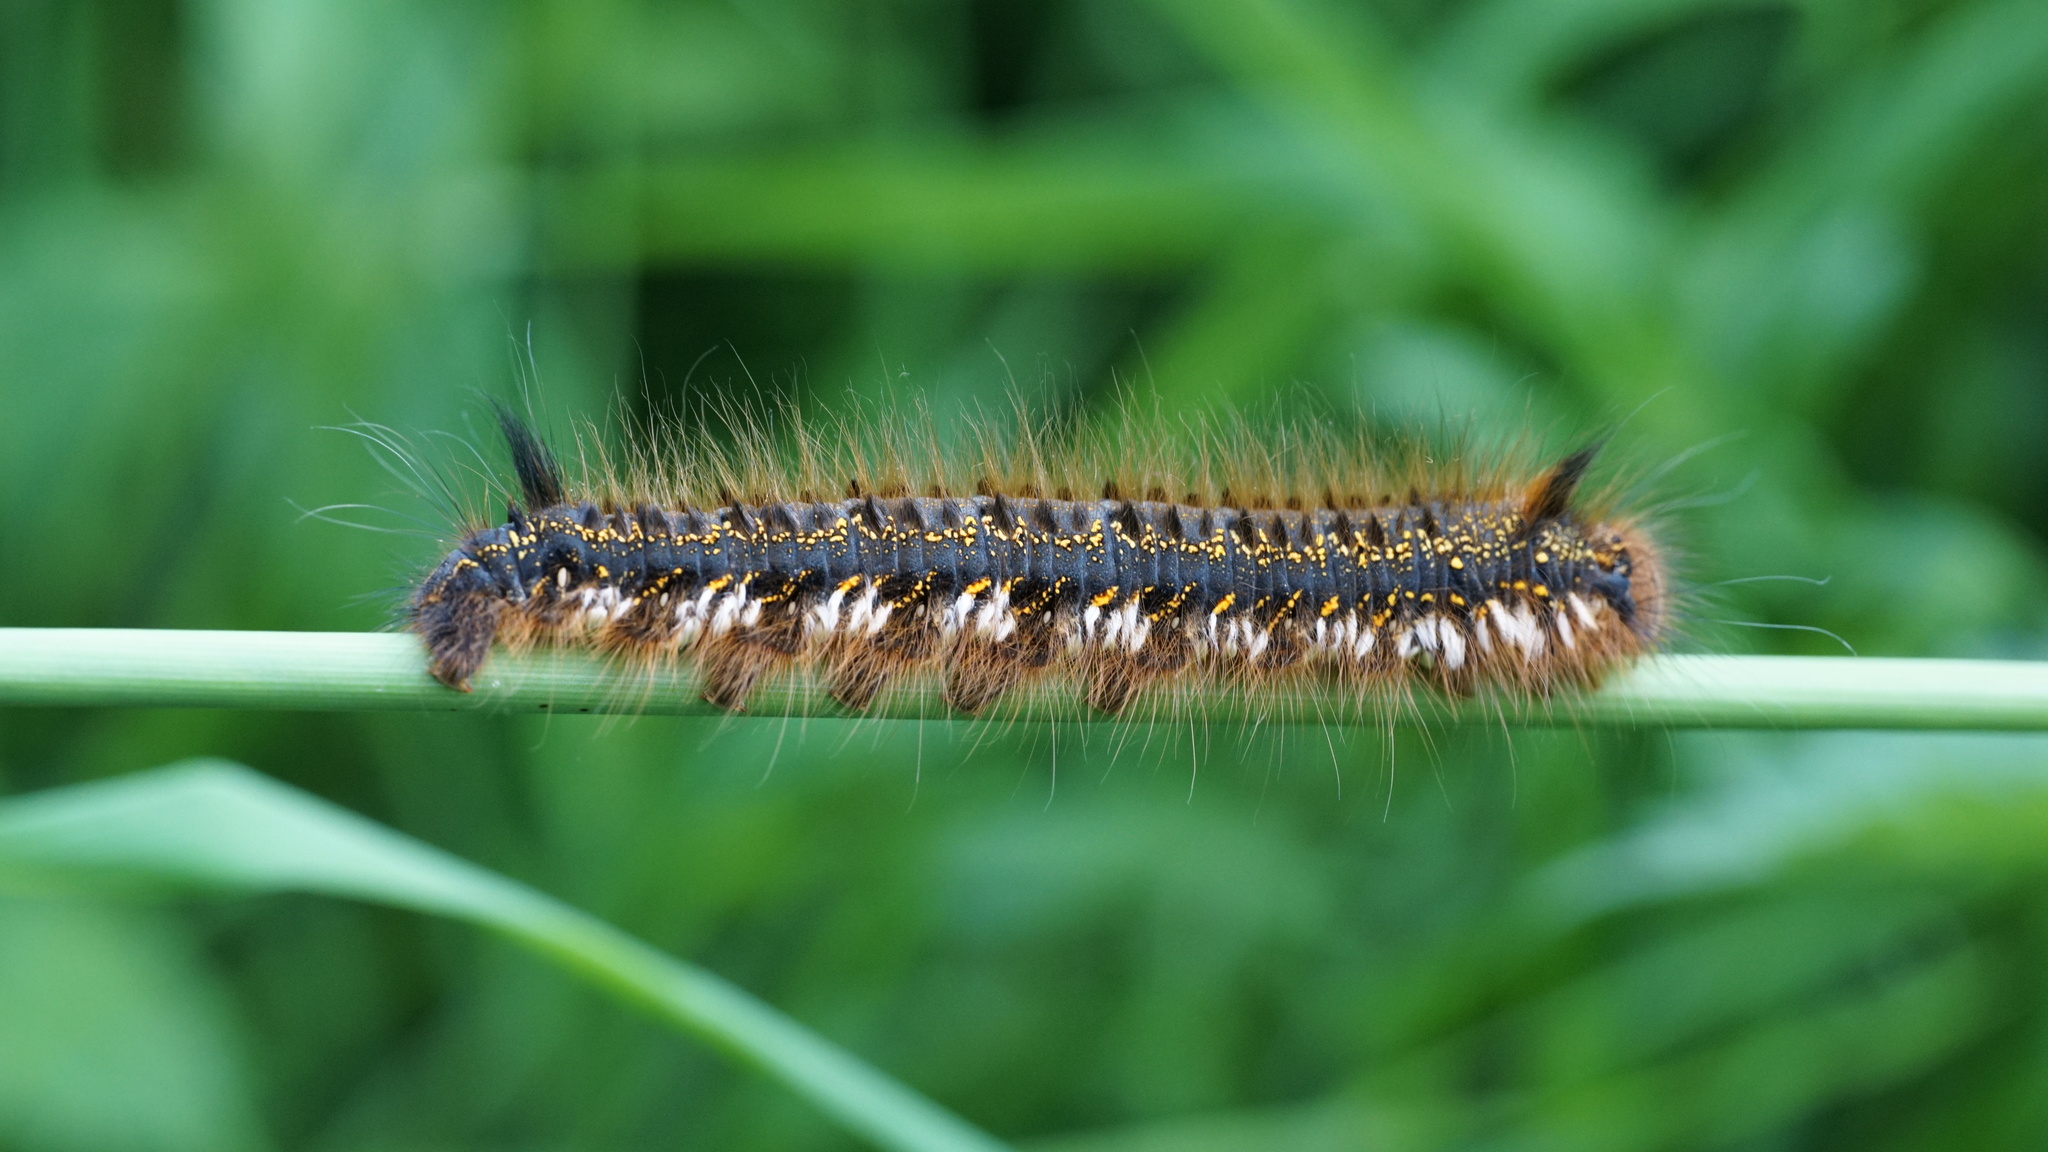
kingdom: Animalia
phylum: Arthropoda
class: Insecta
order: Lepidoptera
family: Lasiocampidae
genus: Euthrix
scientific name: Euthrix potatoria
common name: Drinker
